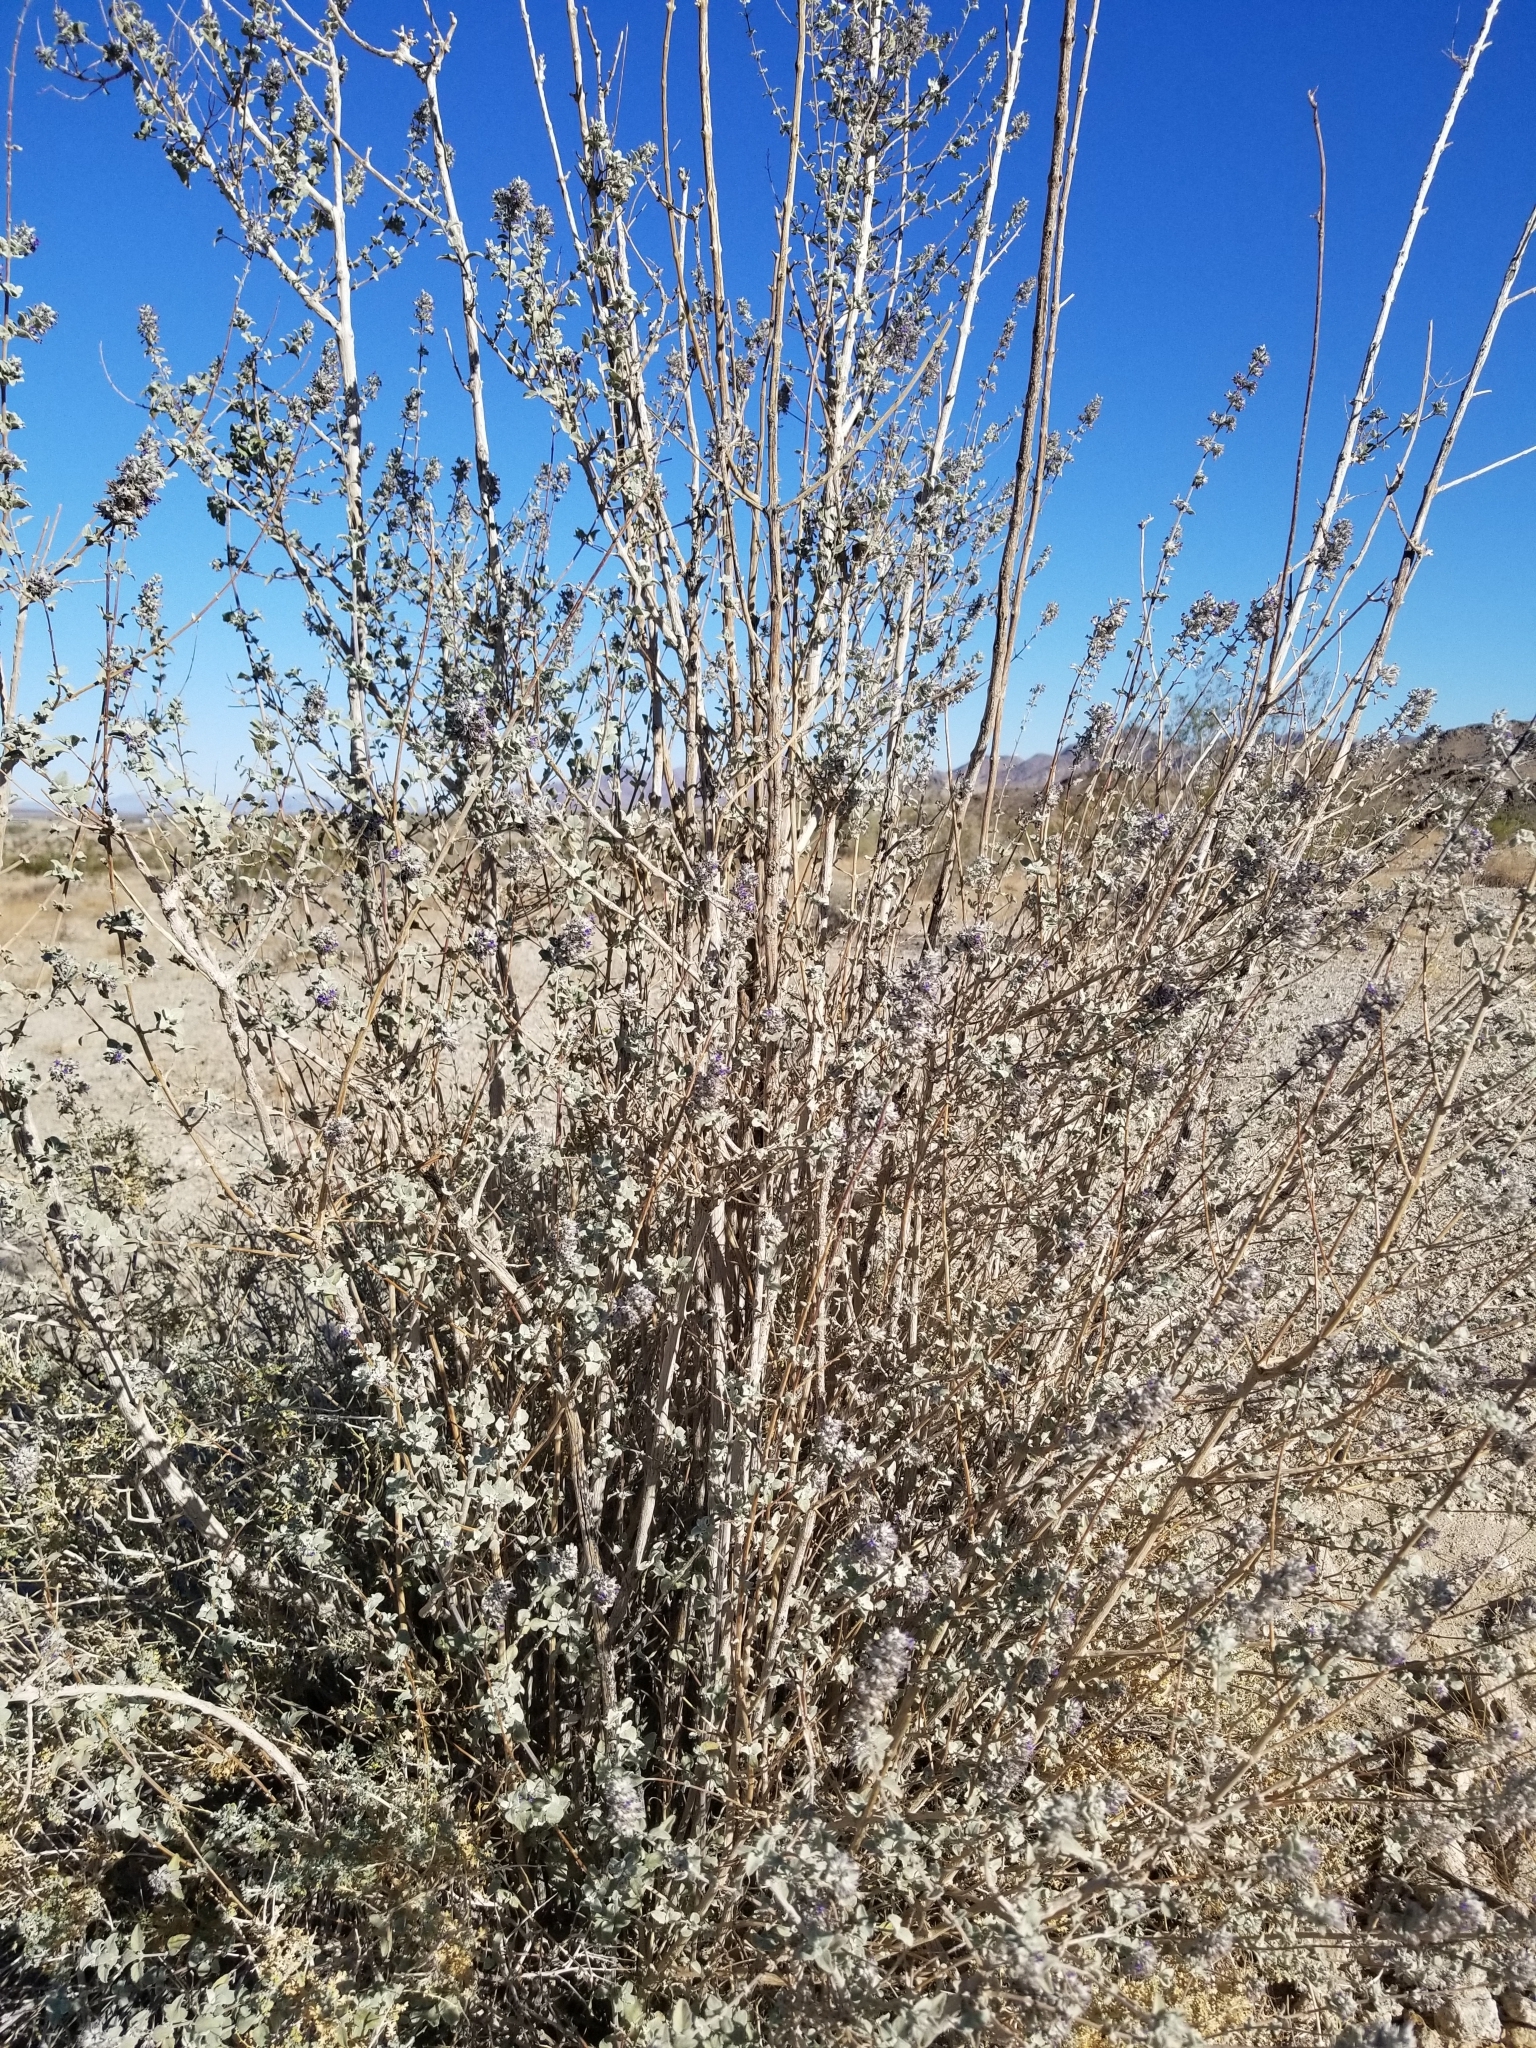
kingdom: Plantae
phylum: Tracheophyta
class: Magnoliopsida
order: Lamiales
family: Lamiaceae
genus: Condea
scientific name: Condea emoryi
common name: Chia
